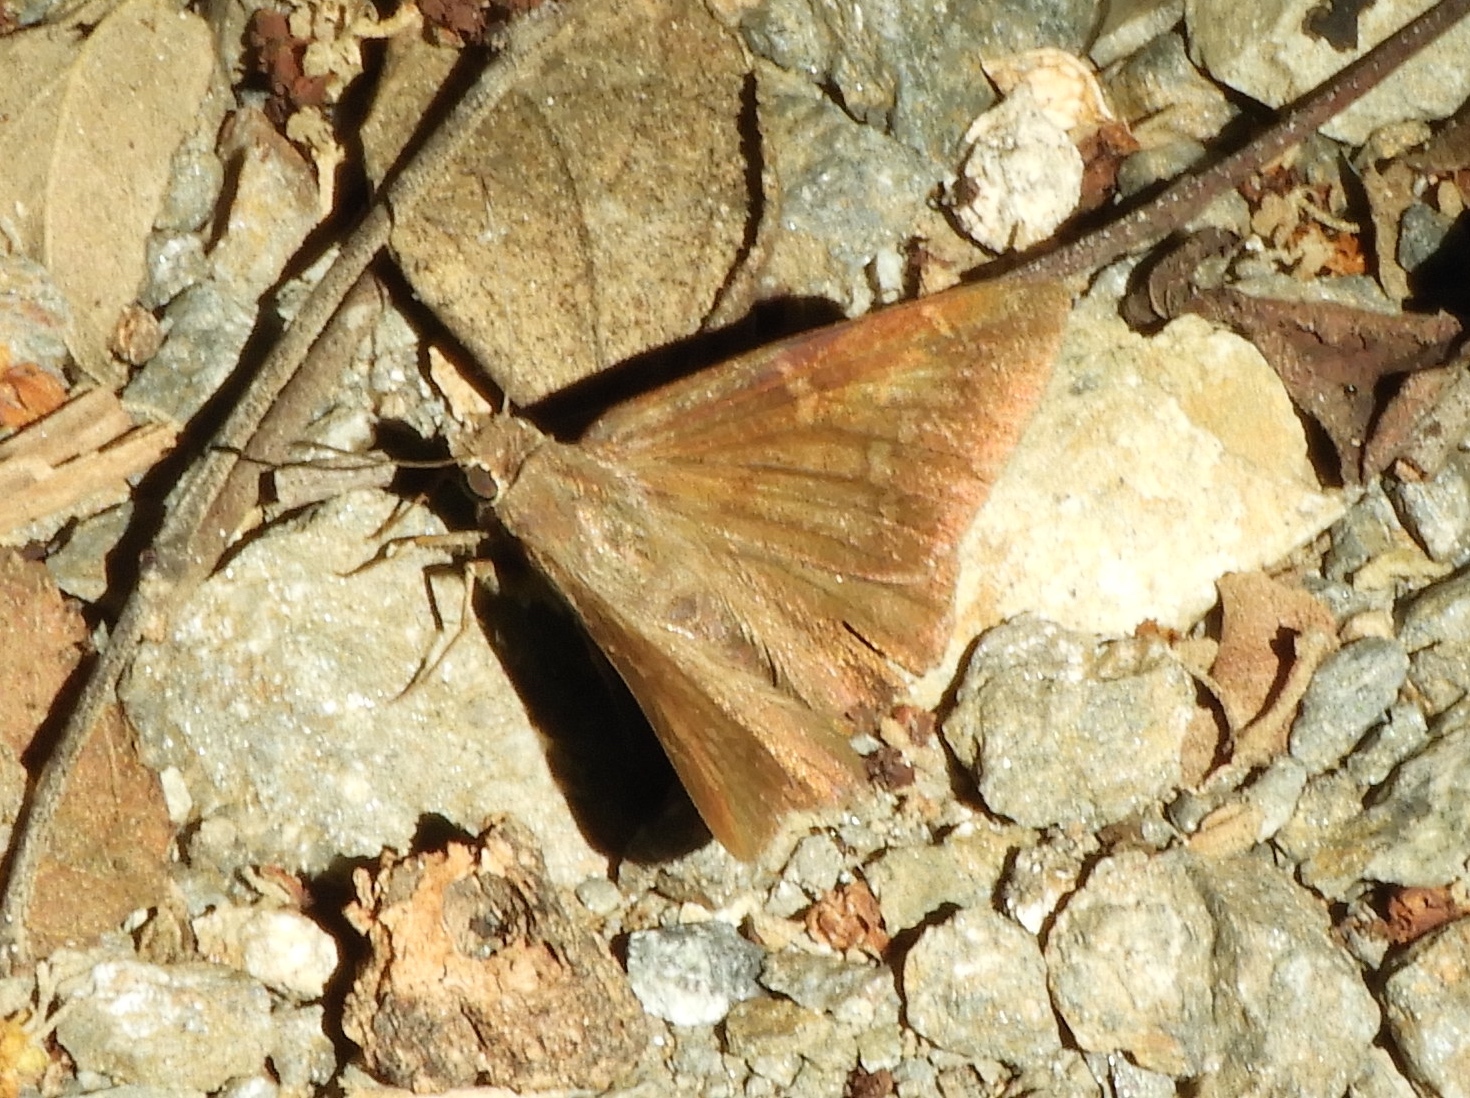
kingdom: Animalia
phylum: Arthropoda
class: Insecta
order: Lepidoptera
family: Hesperiidae
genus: Achalarus
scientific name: Achalarus Murgaria albociliatus
